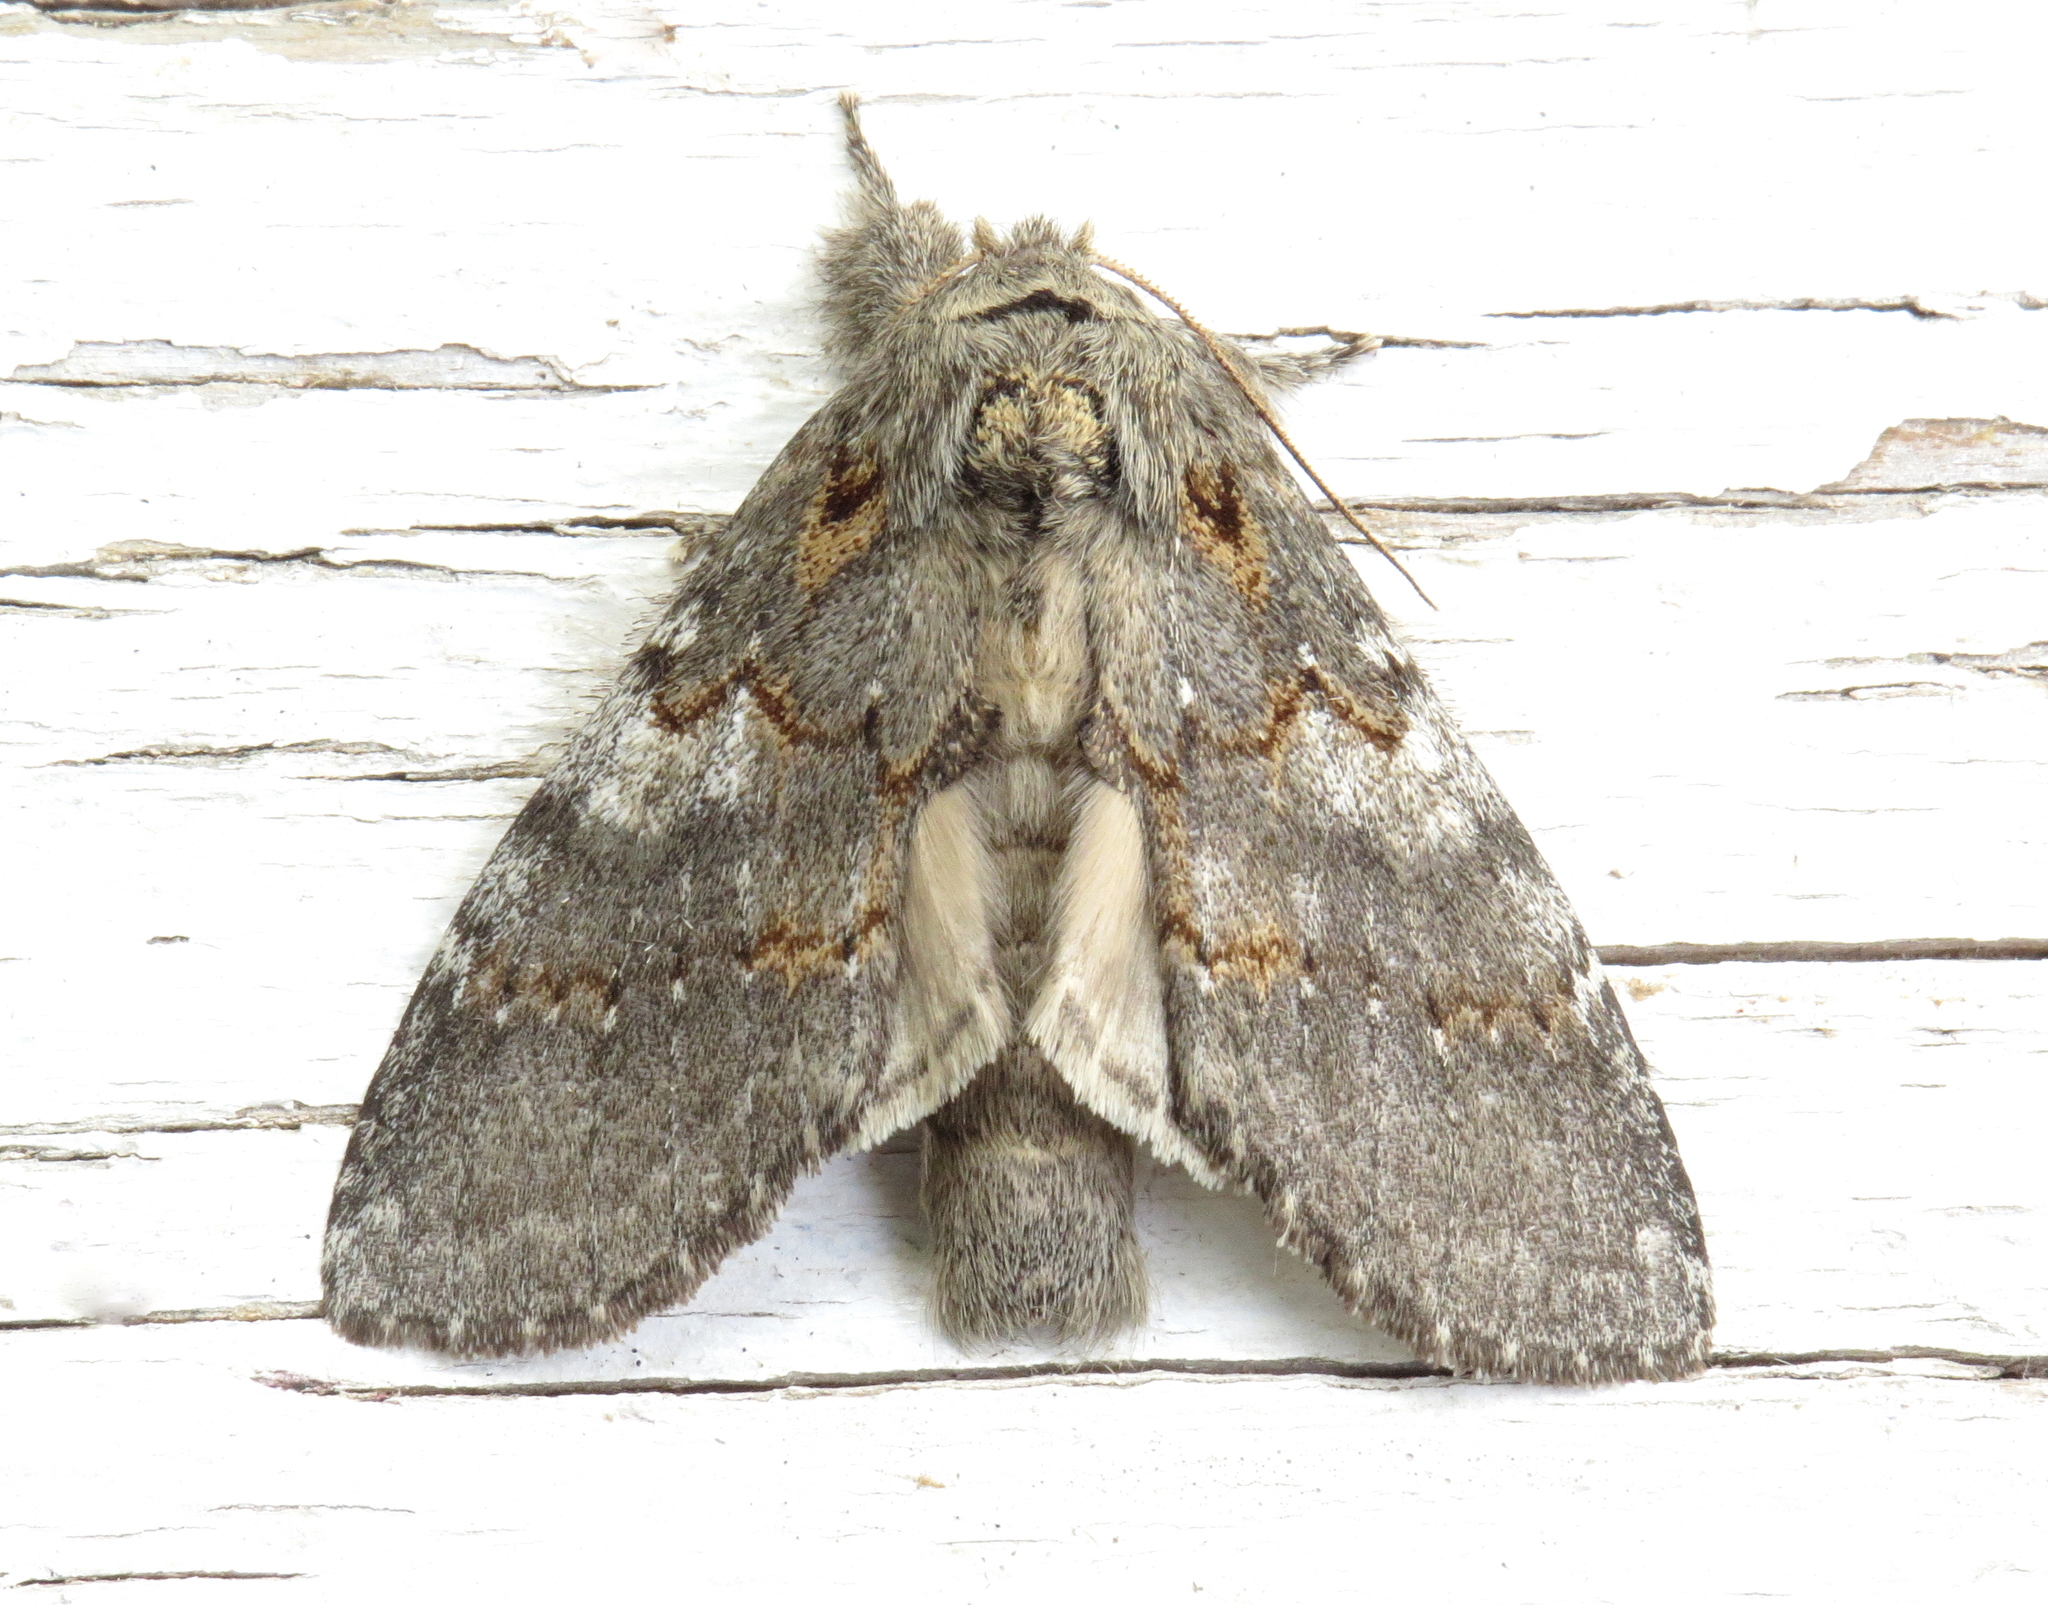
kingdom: Animalia
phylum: Arthropoda
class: Insecta
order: Lepidoptera
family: Notodontidae
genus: Peridea
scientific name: Peridea angulosa
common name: Angulose prominent
